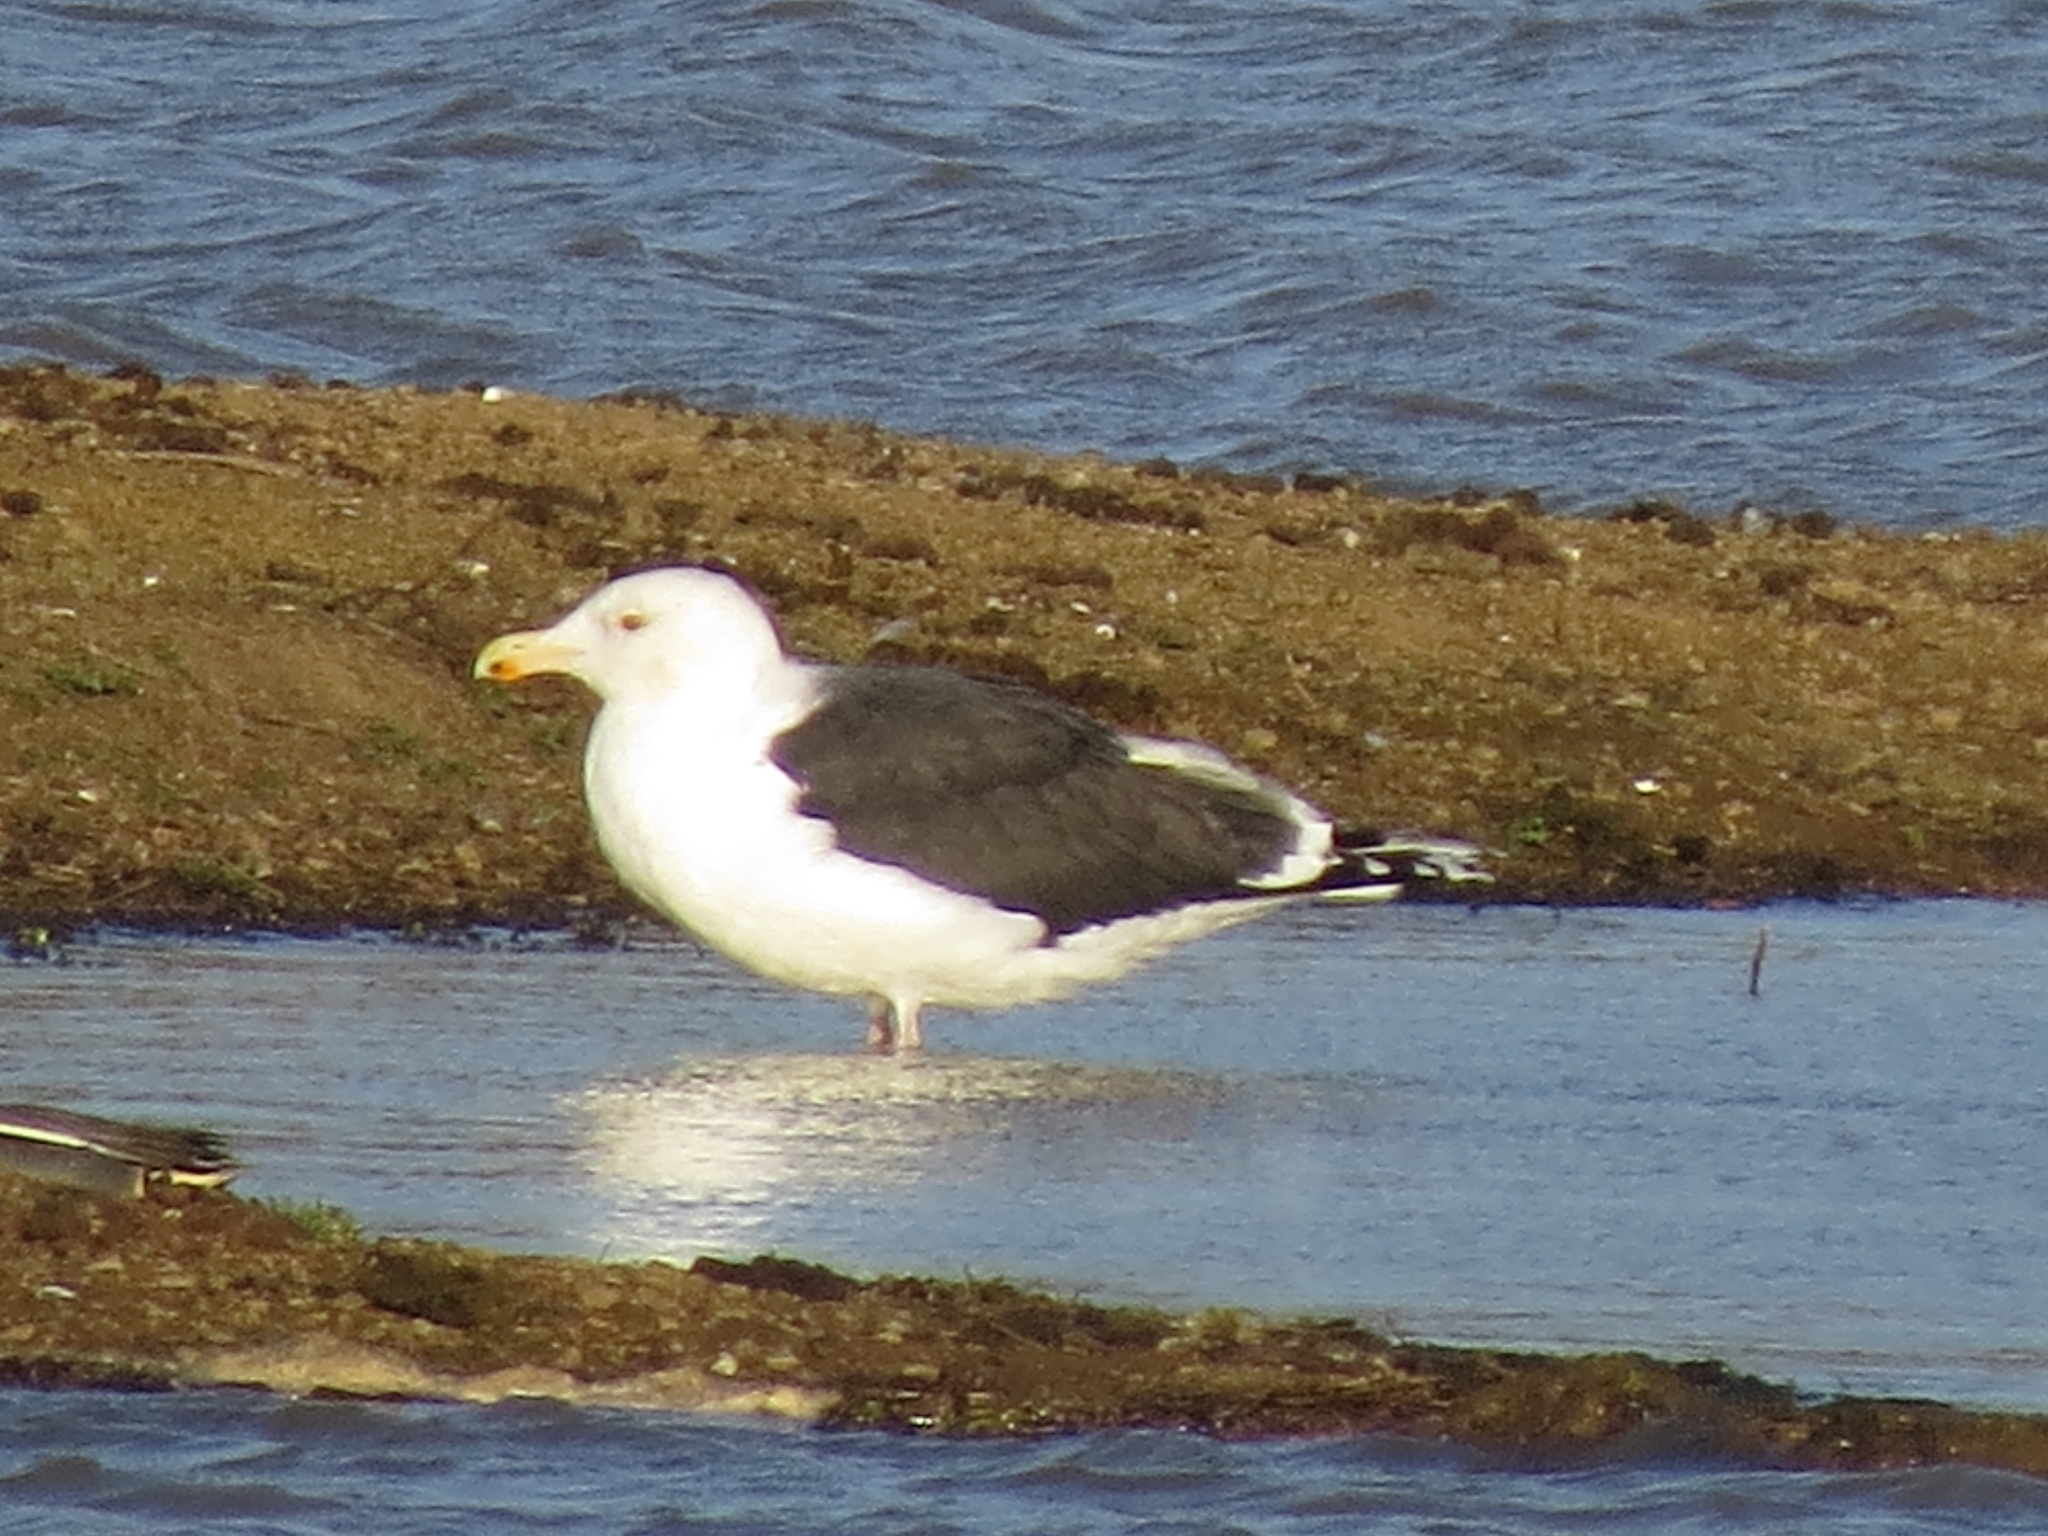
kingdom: Animalia
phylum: Chordata
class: Aves
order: Charadriiformes
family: Laridae
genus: Larus
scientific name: Larus marinus
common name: Great black-backed gull
